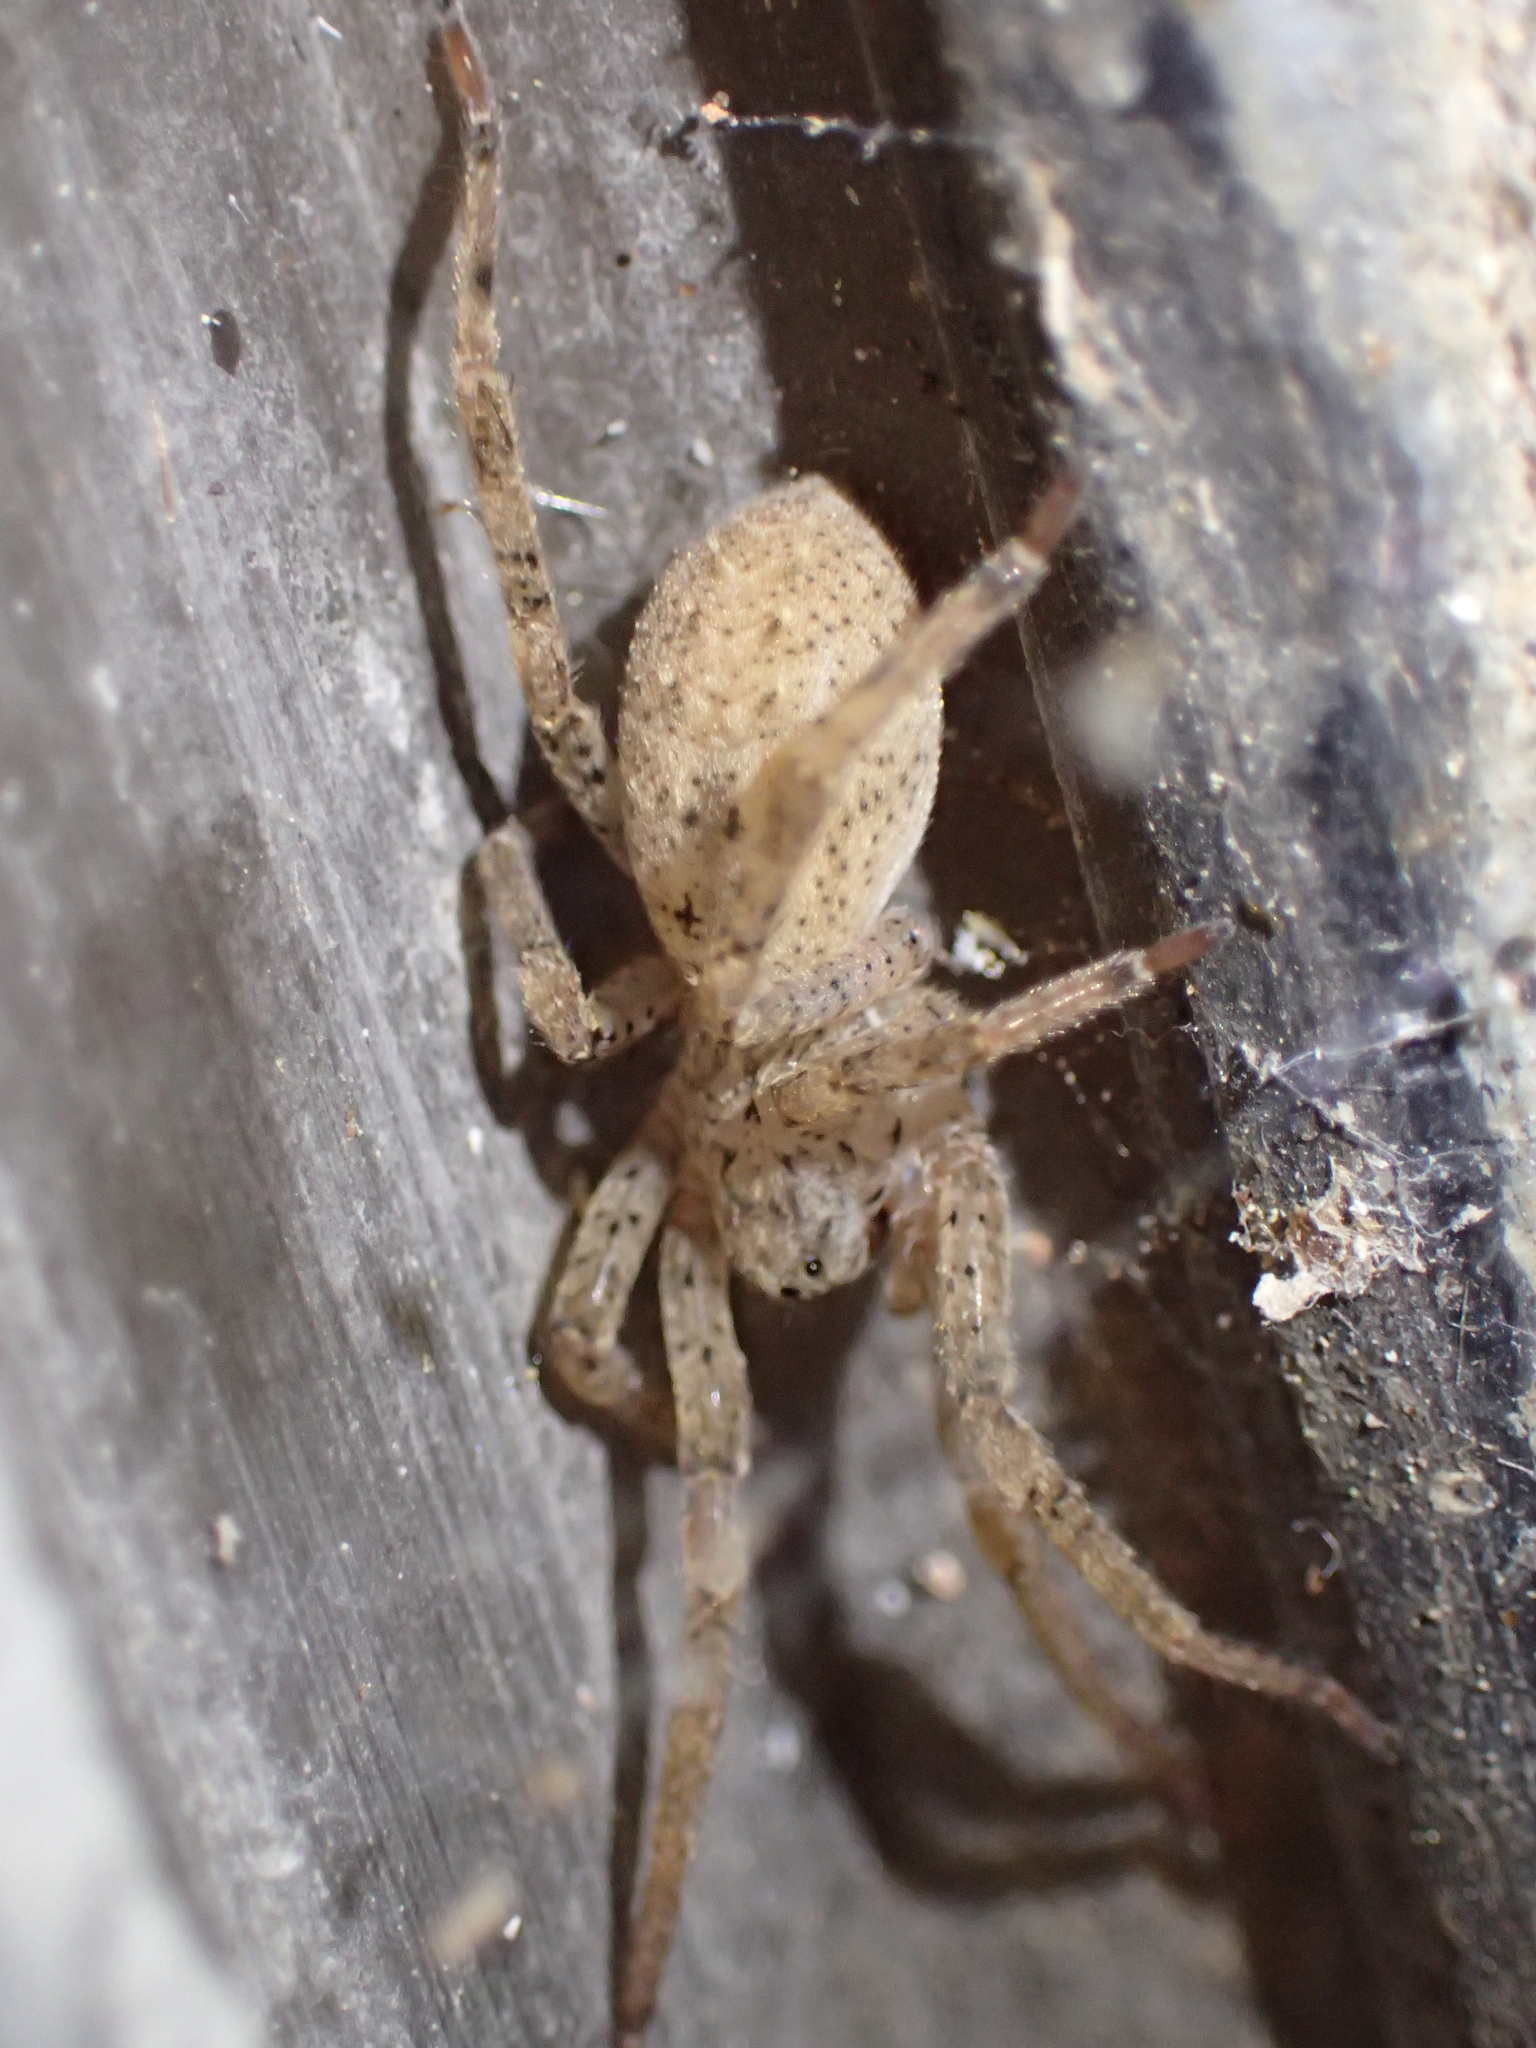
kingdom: Animalia
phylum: Arthropoda
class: Arachnida
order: Araneae
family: Zoropsidae
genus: Zoropsis
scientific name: Zoropsis oertzeni
